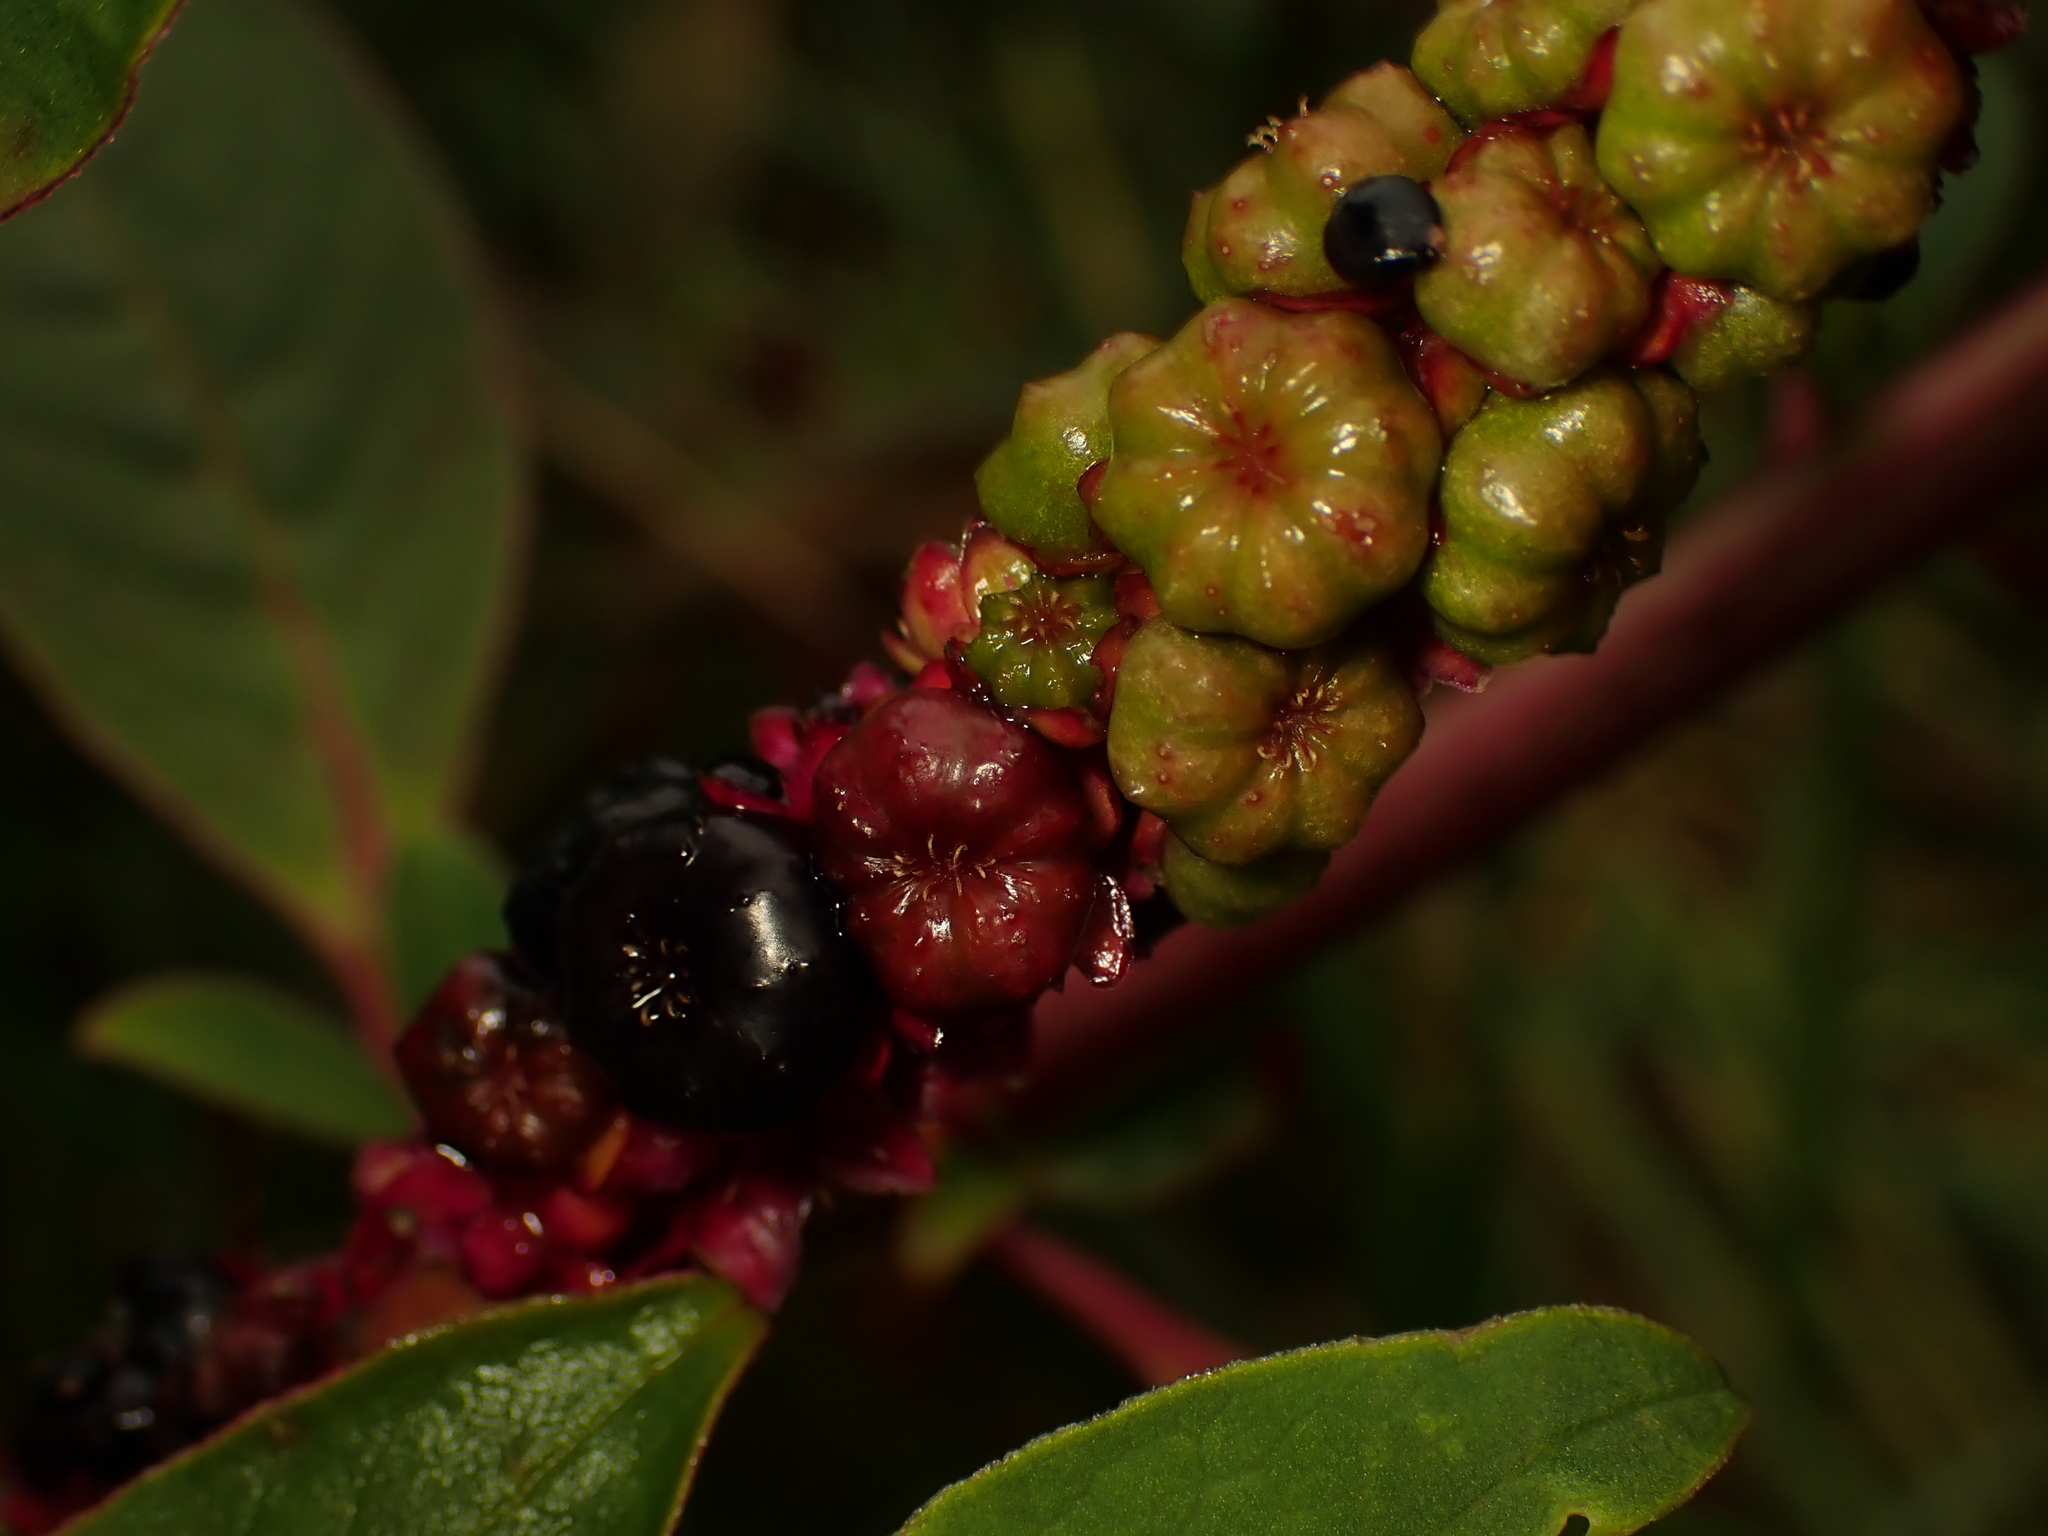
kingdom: Plantae
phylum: Tracheophyta
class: Magnoliopsida
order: Caryophyllales
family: Phytolaccaceae
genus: Phytolacca
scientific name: Phytolacca icosandra
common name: Button pokeweed
